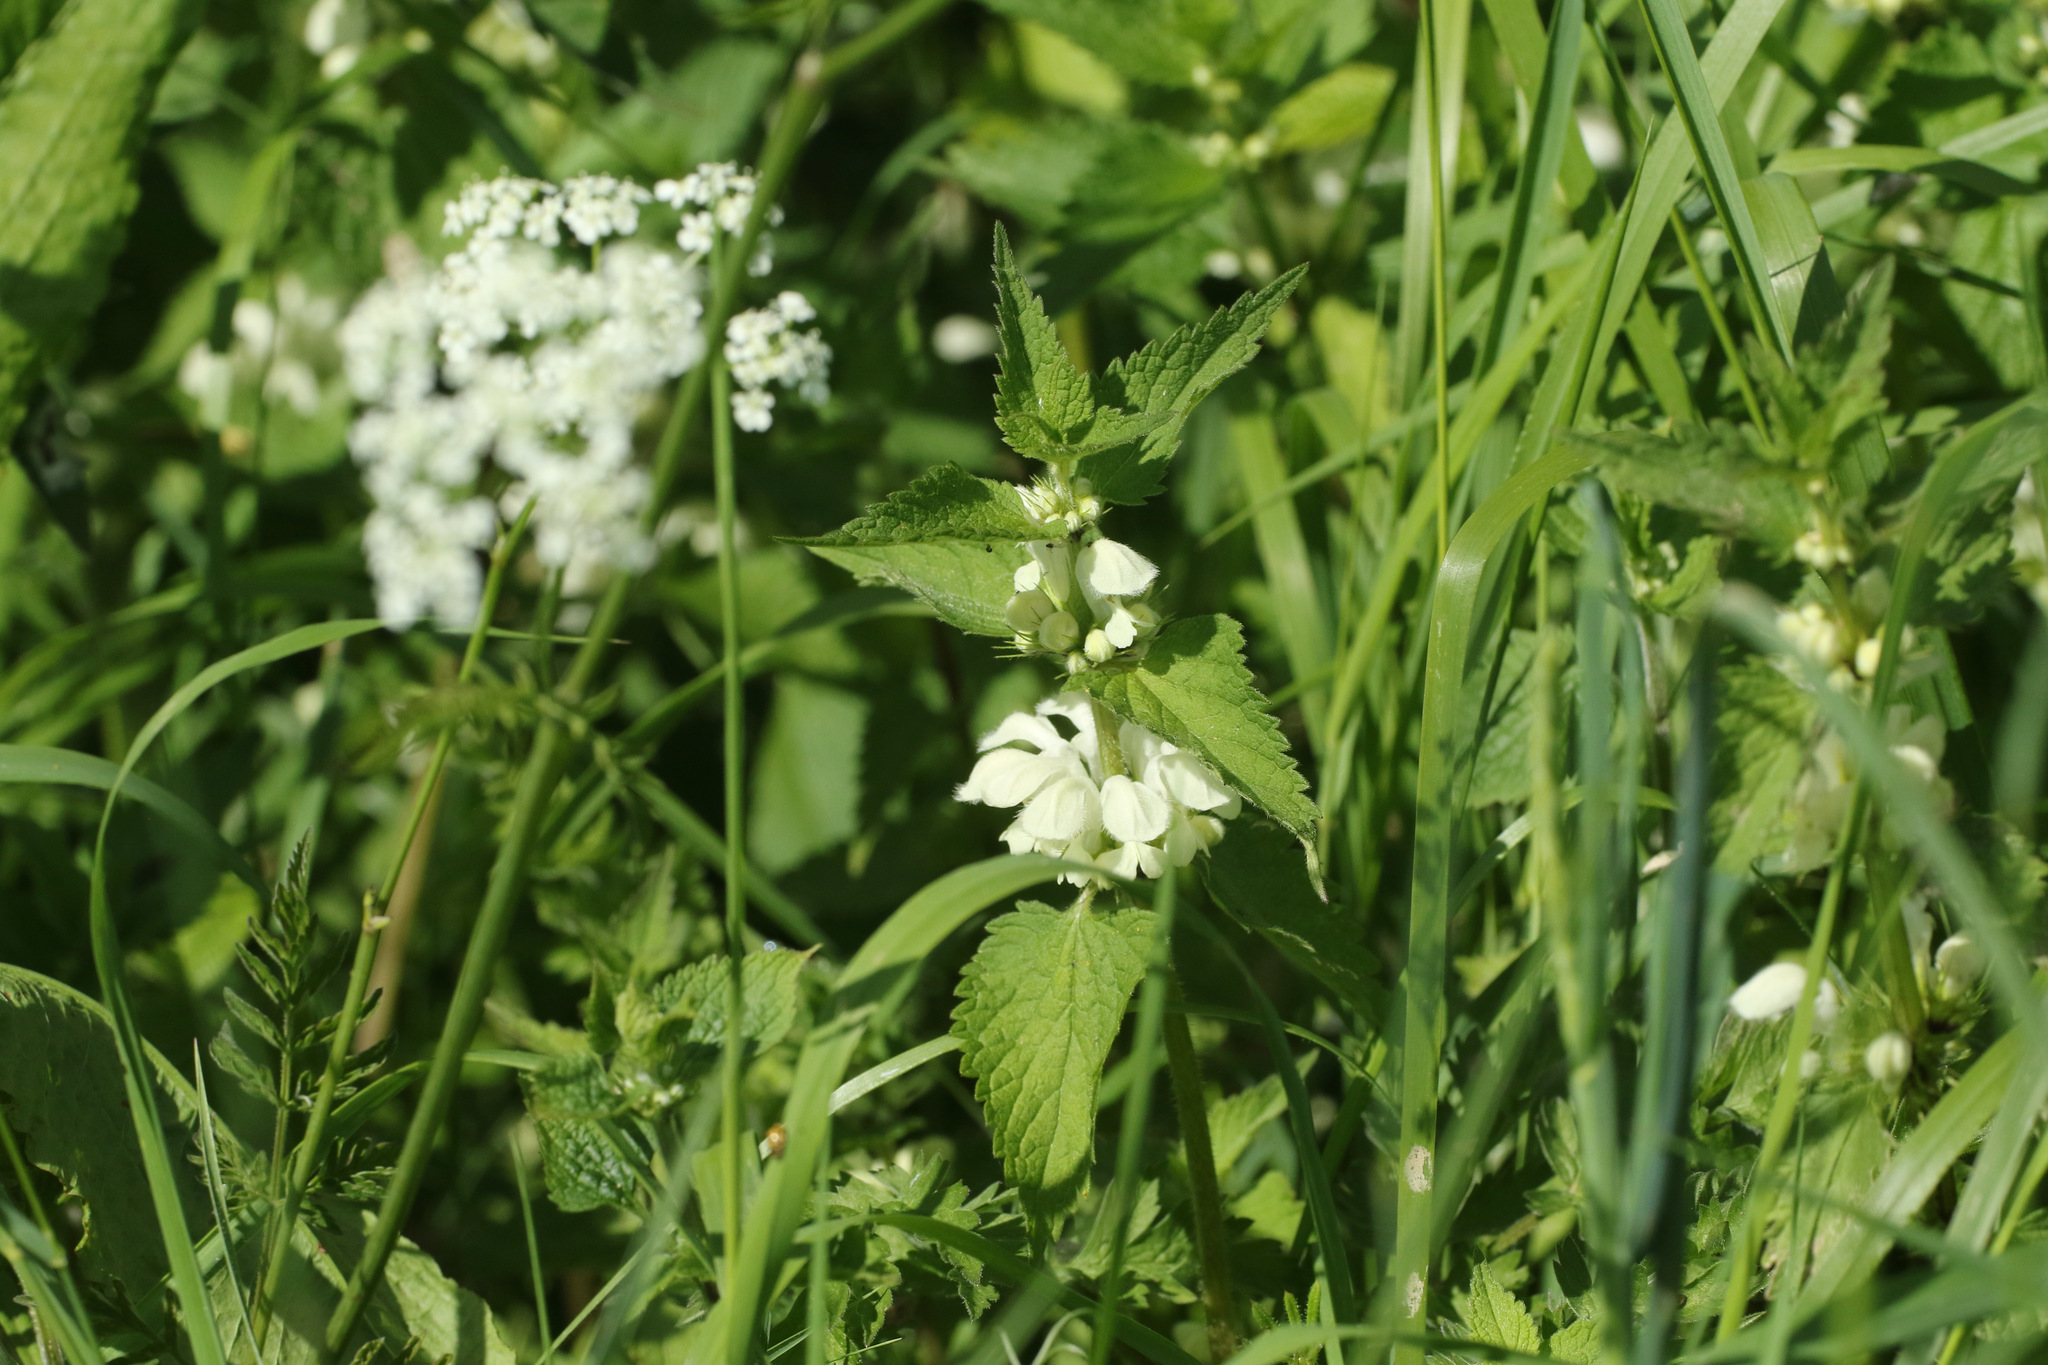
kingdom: Plantae
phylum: Tracheophyta
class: Magnoliopsida
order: Lamiales
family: Lamiaceae
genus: Lamium
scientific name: Lamium album
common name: White dead-nettle
